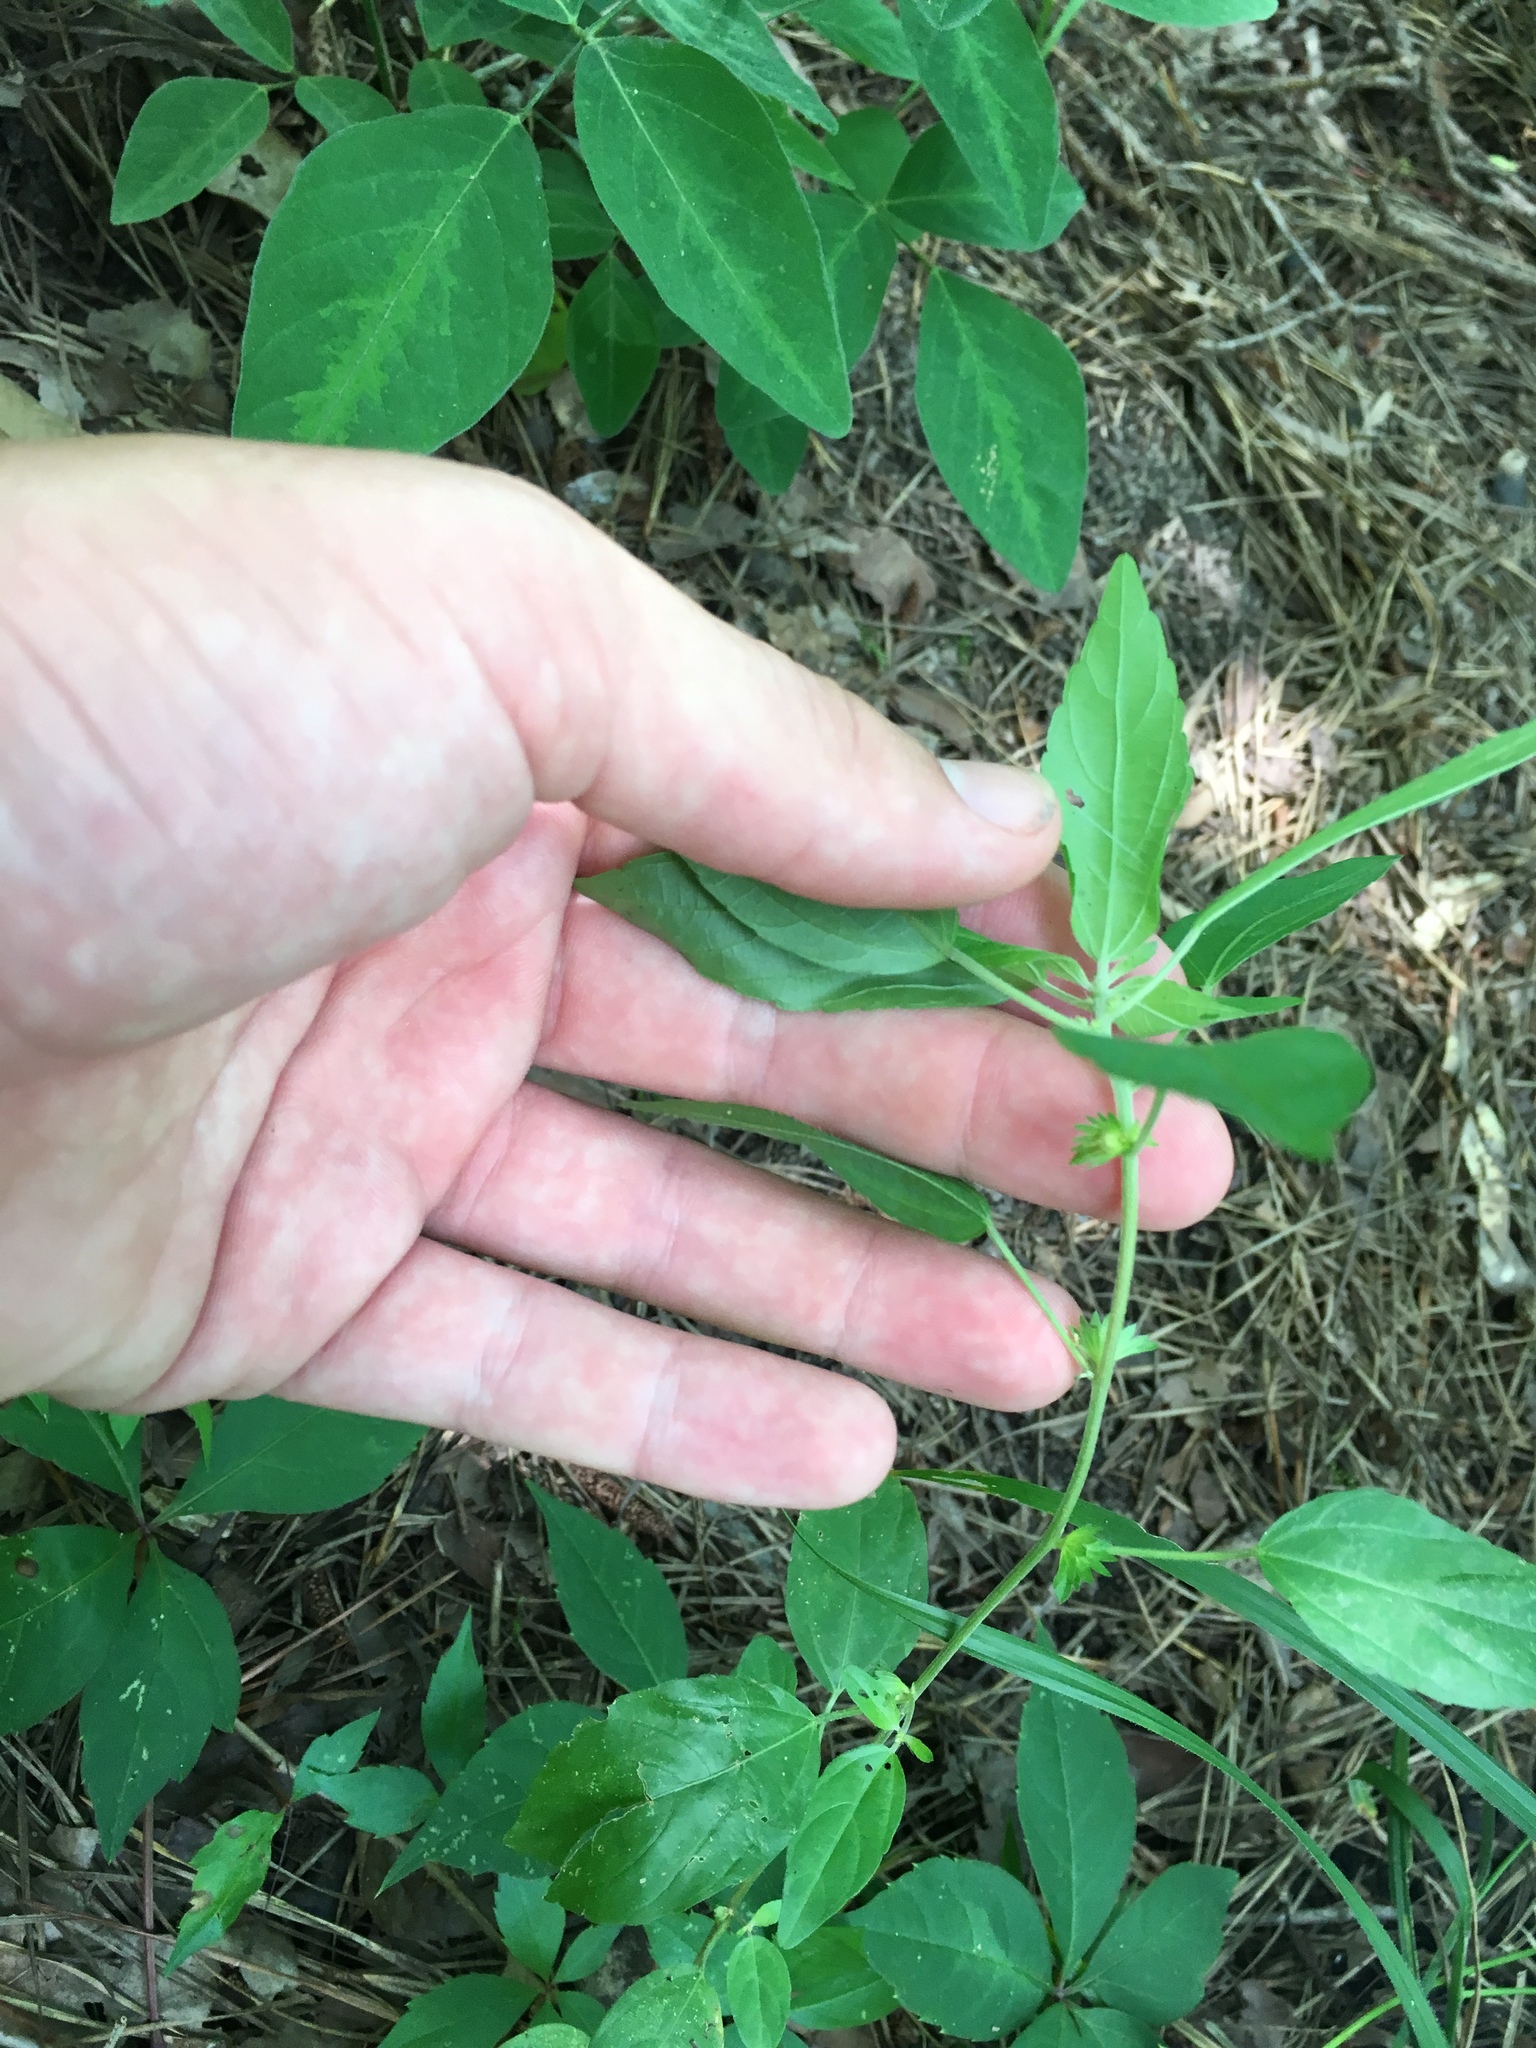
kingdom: Plantae
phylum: Tracheophyta
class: Magnoliopsida
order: Malpighiales
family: Euphorbiaceae
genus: Acalypha
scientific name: Acalypha rhomboidea
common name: Rhombic copperleaf
